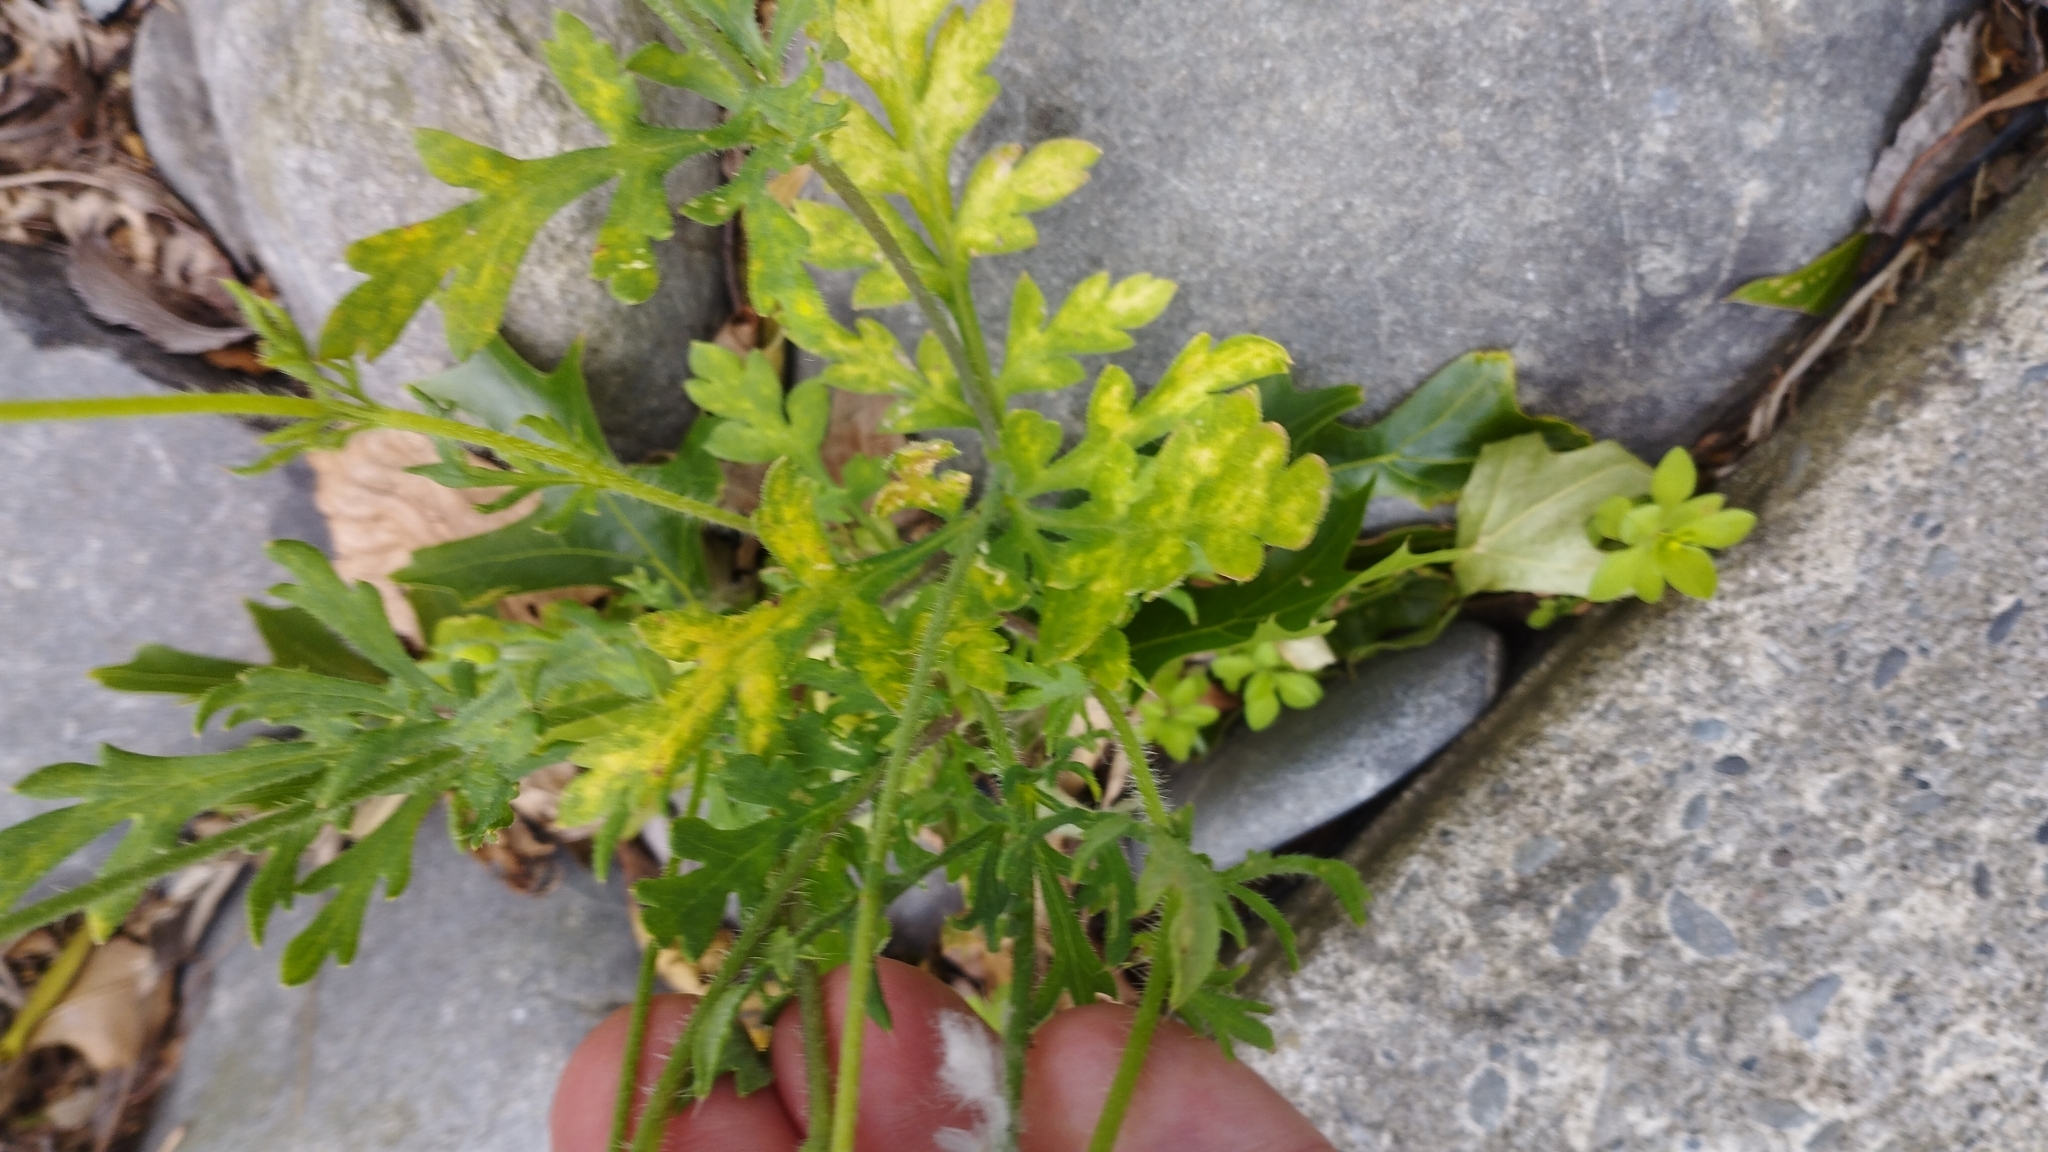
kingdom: Plantae
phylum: Tracheophyta
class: Magnoliopsida
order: Ranunculales
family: Papaveraceae
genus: Papaver
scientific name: Papaver dubium
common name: Long-headed poppy
